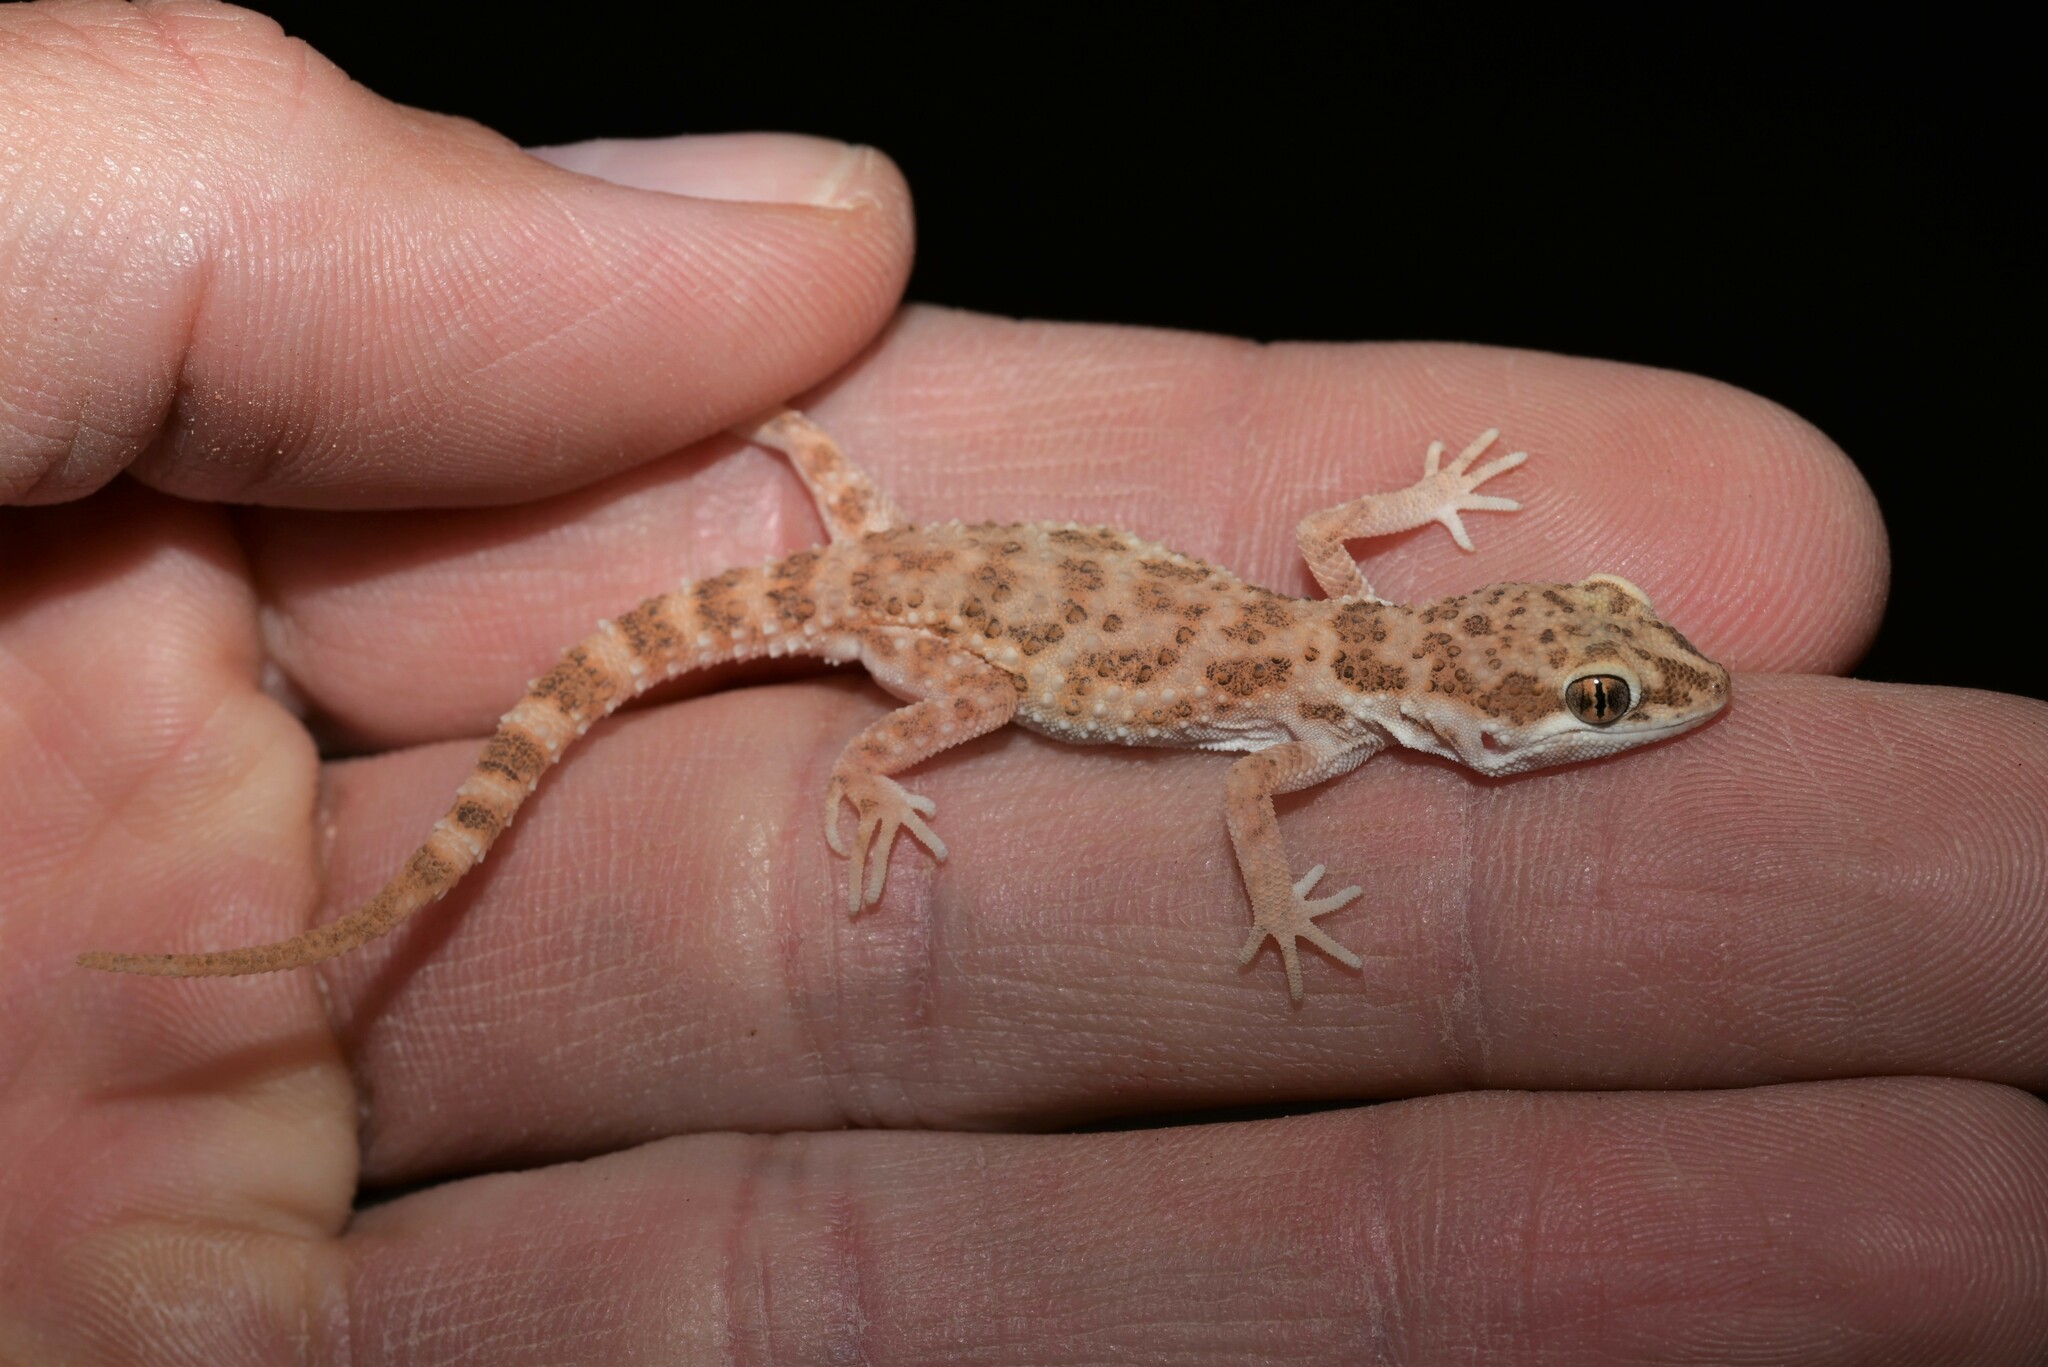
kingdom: Animalia
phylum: Chordata
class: Squamata
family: Gekkonidae
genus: Bunopus
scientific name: Bunopus tuberculatus
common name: Southern tuberculated gecko
